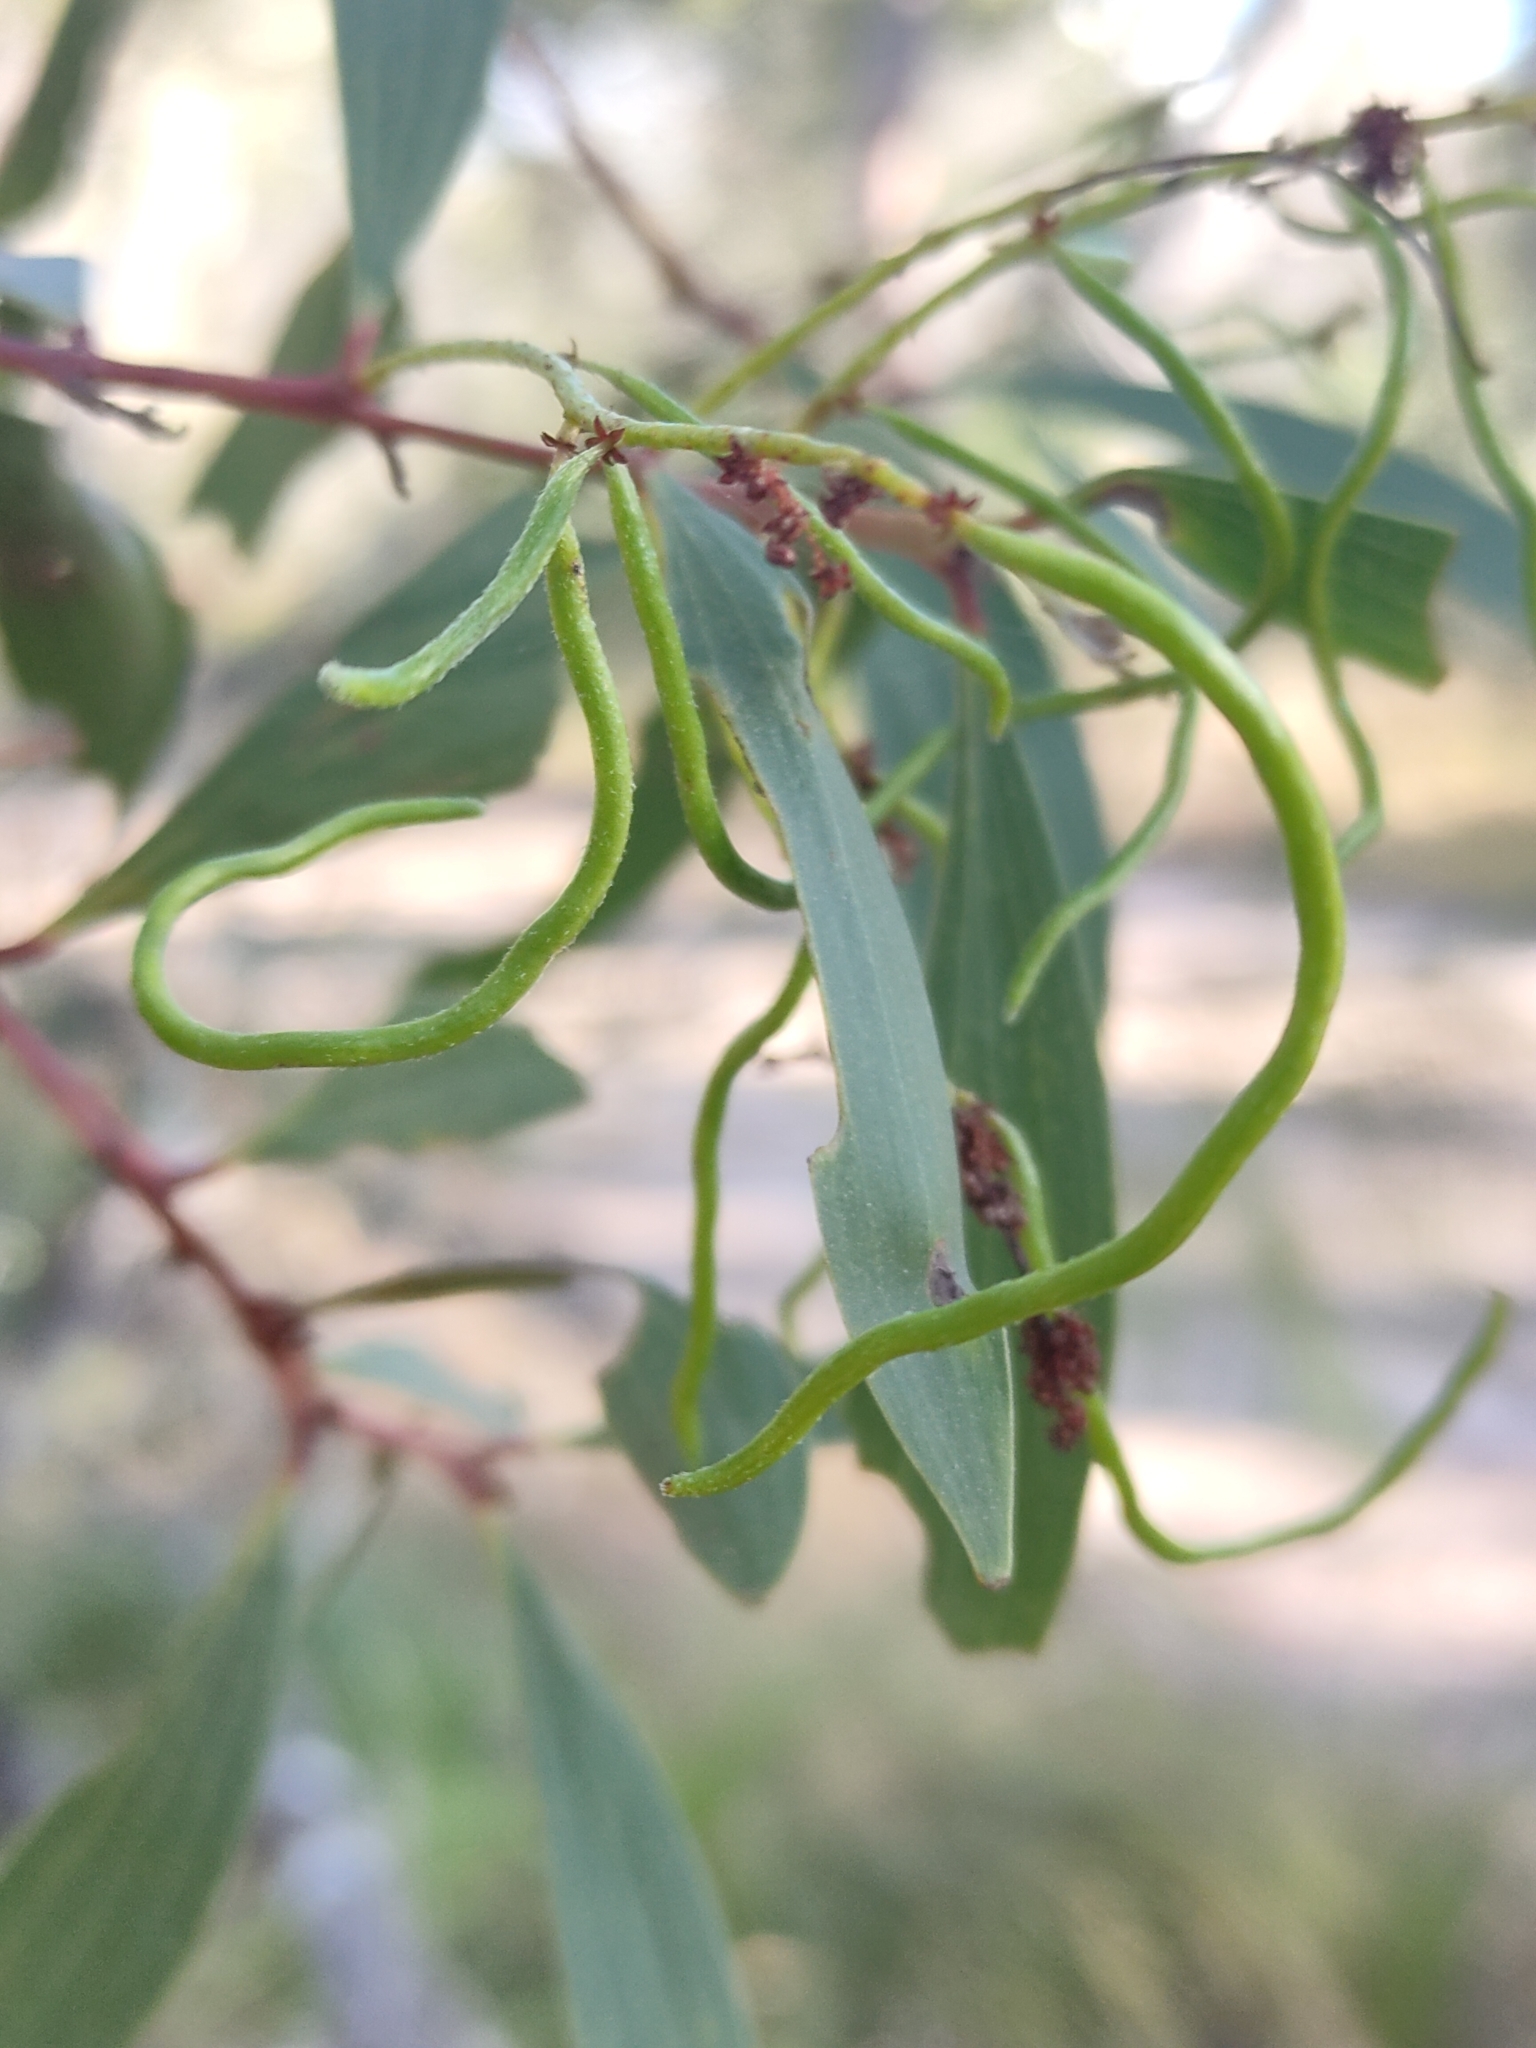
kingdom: Plantae
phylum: Tracheophyta
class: Magnoliopsida
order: Fabales
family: Fabaceae
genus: Acacia
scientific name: Acacia leiocalyx
